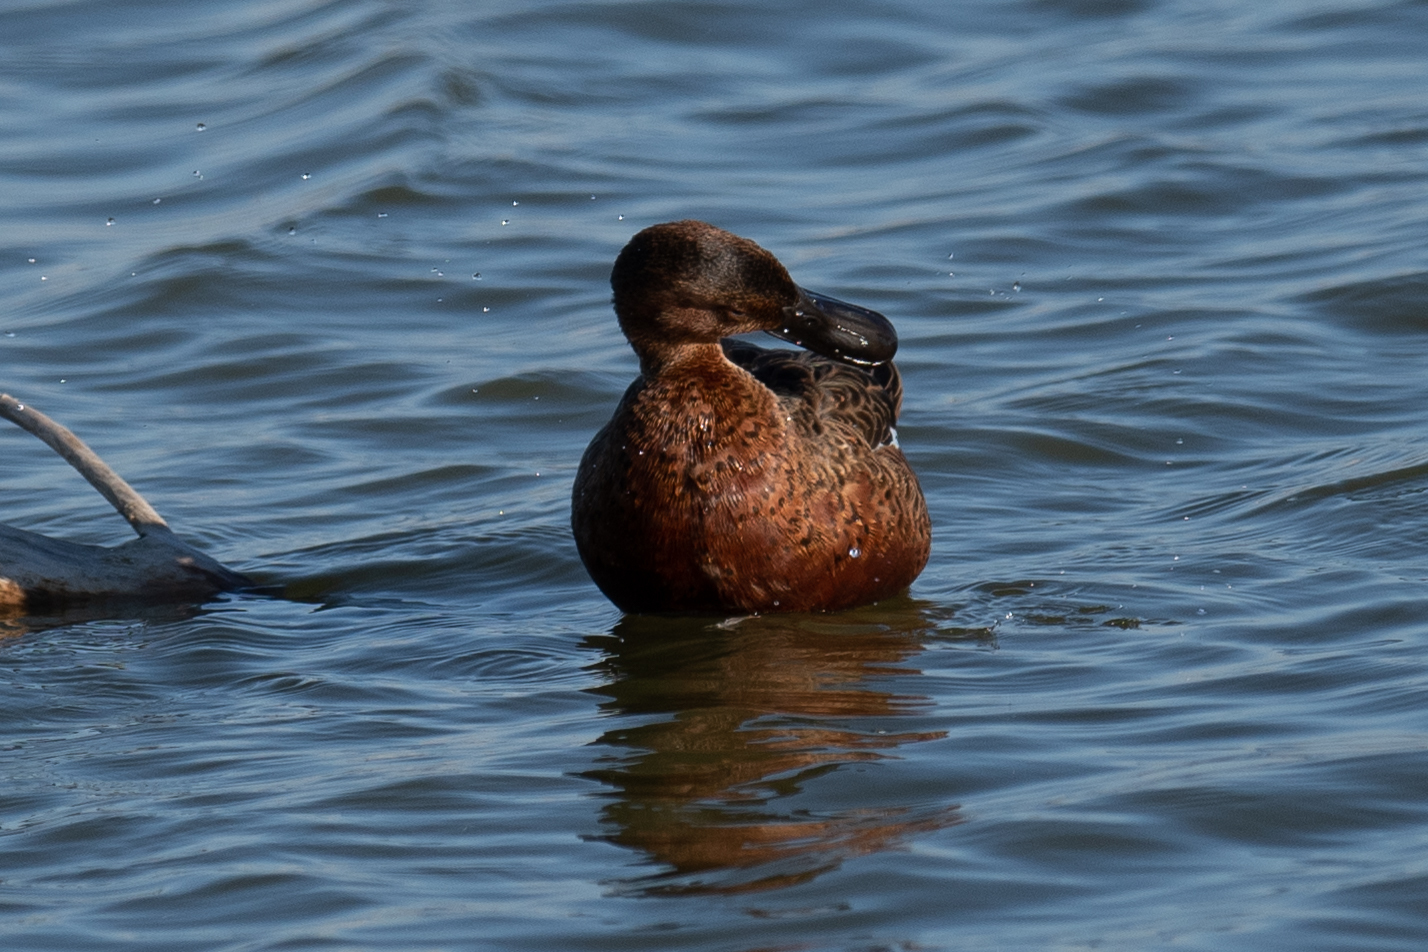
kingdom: Animalia
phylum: Chordata
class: Aves
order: Anseriformes
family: Anatidae
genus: Spatula
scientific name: Spatula cyanoptera
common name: Cinnamon teal
